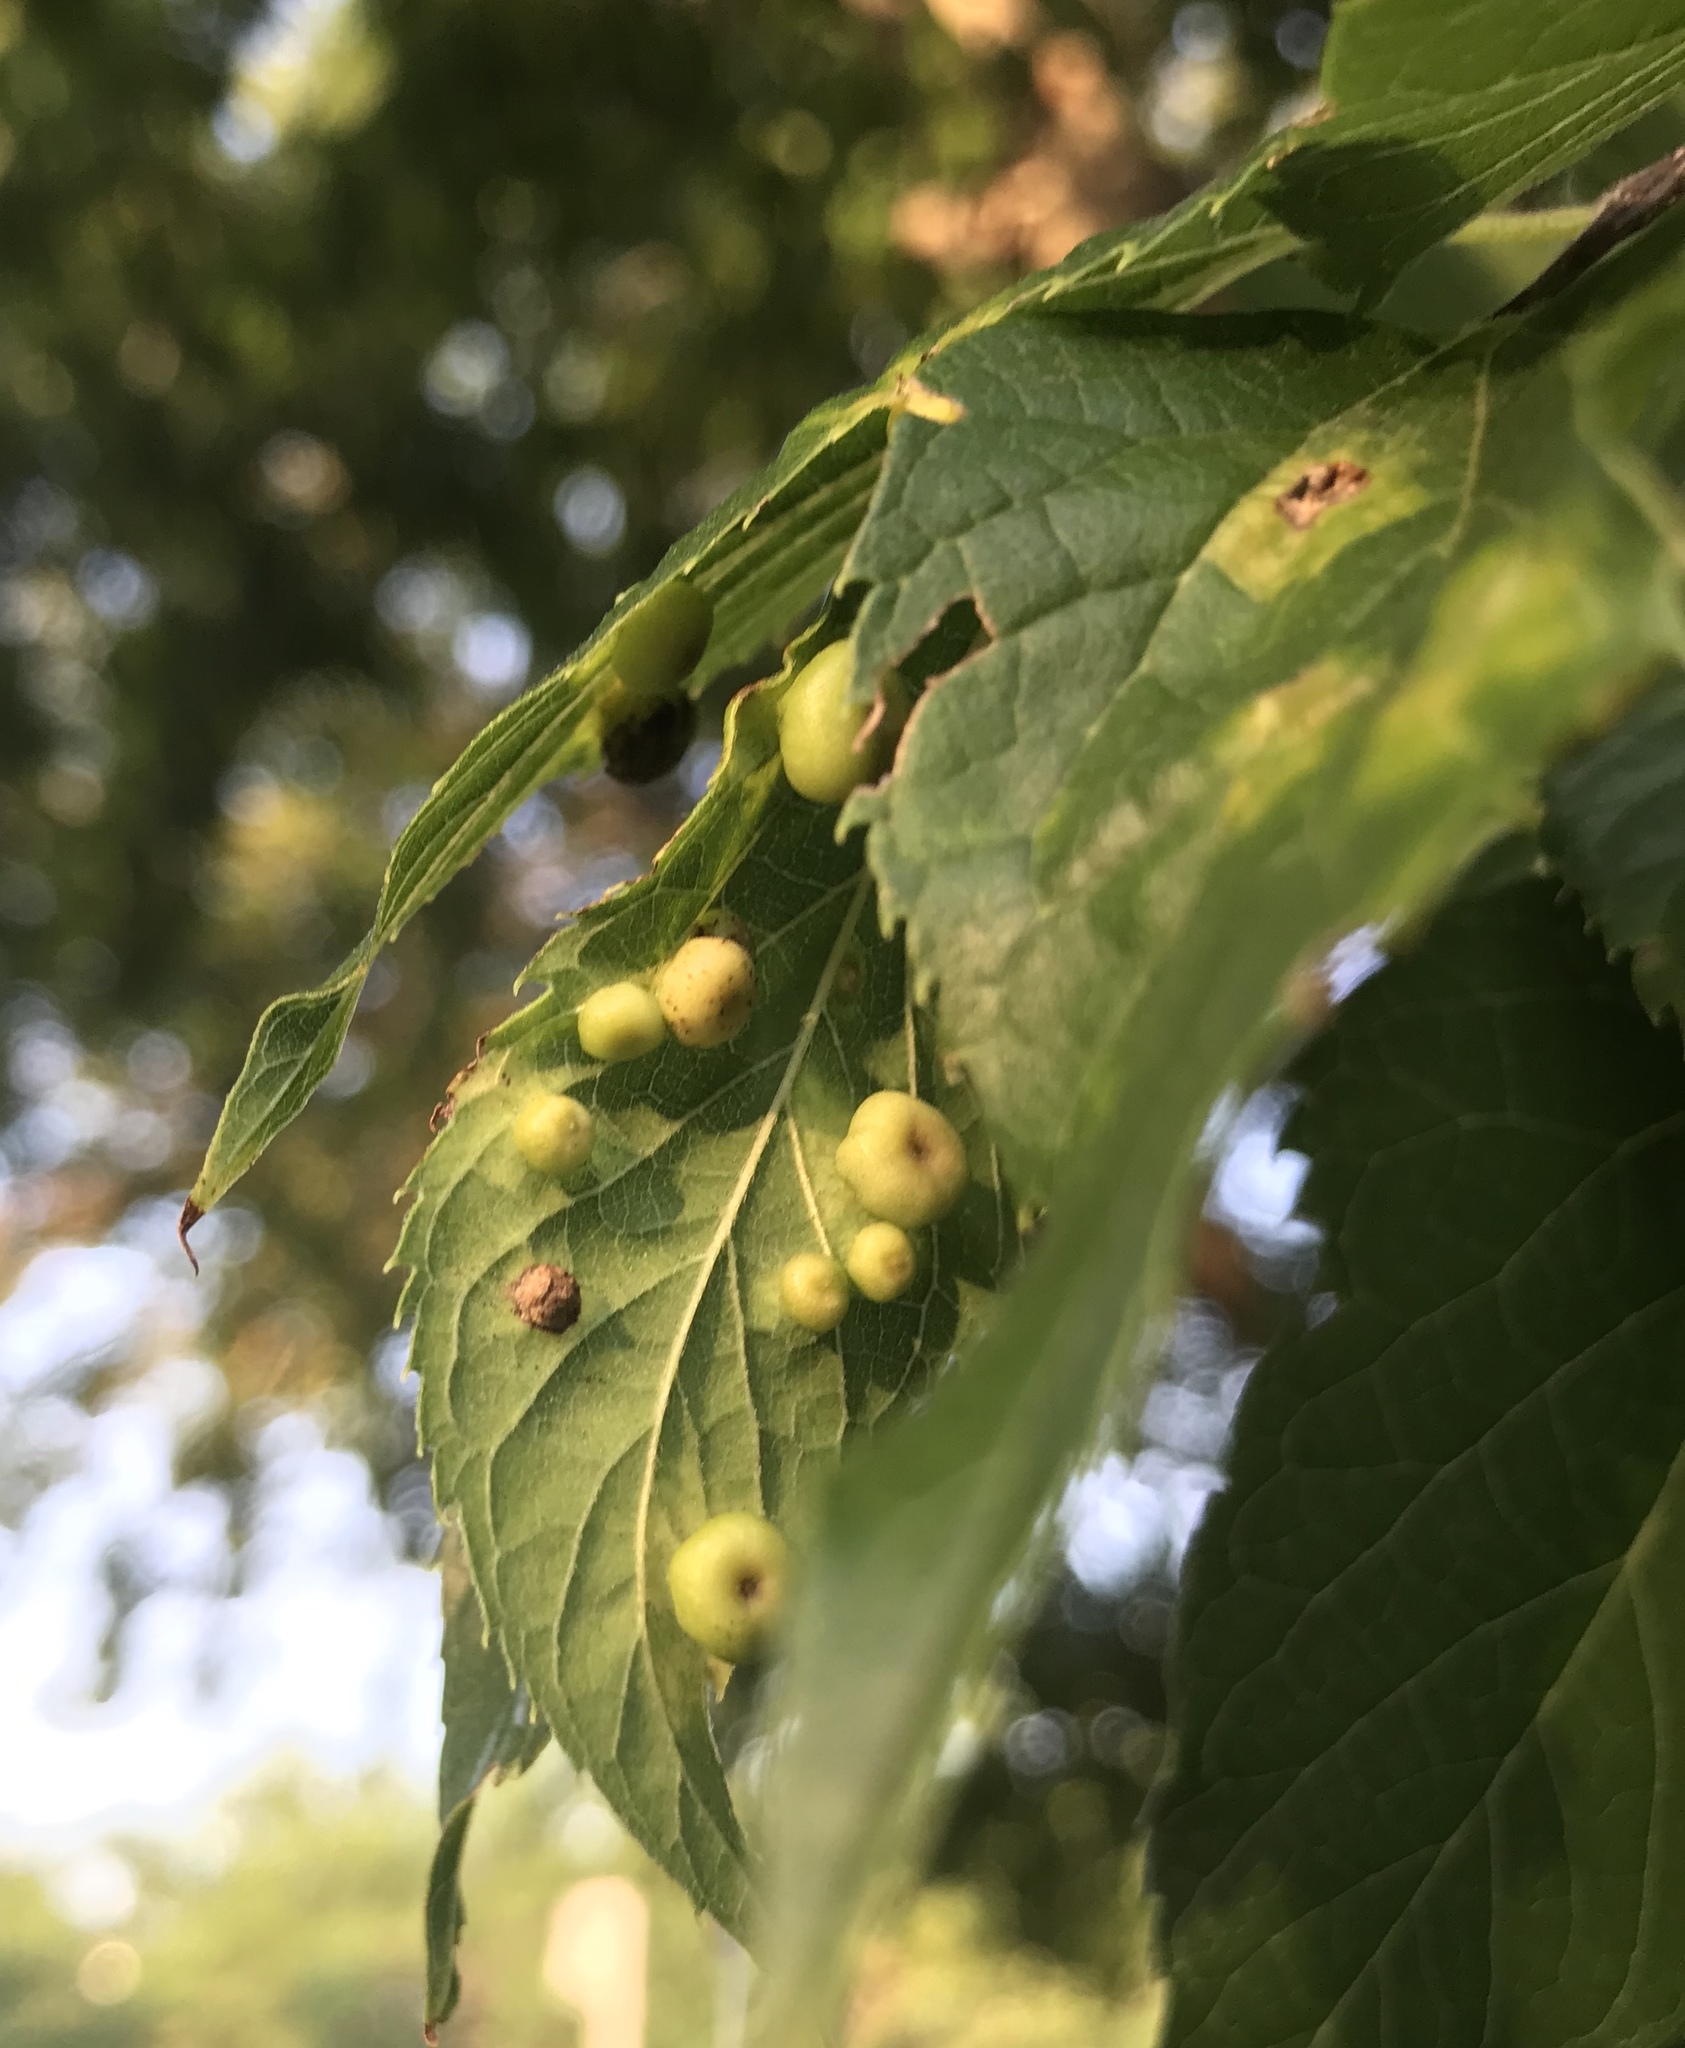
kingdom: Animalia
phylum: Arthropoda
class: Insecta
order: Hemiptera
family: Aphalaridae
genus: Pachypsylla
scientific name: Pachypsylla celtidismamma
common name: Hackberry nipplegall psyllid
